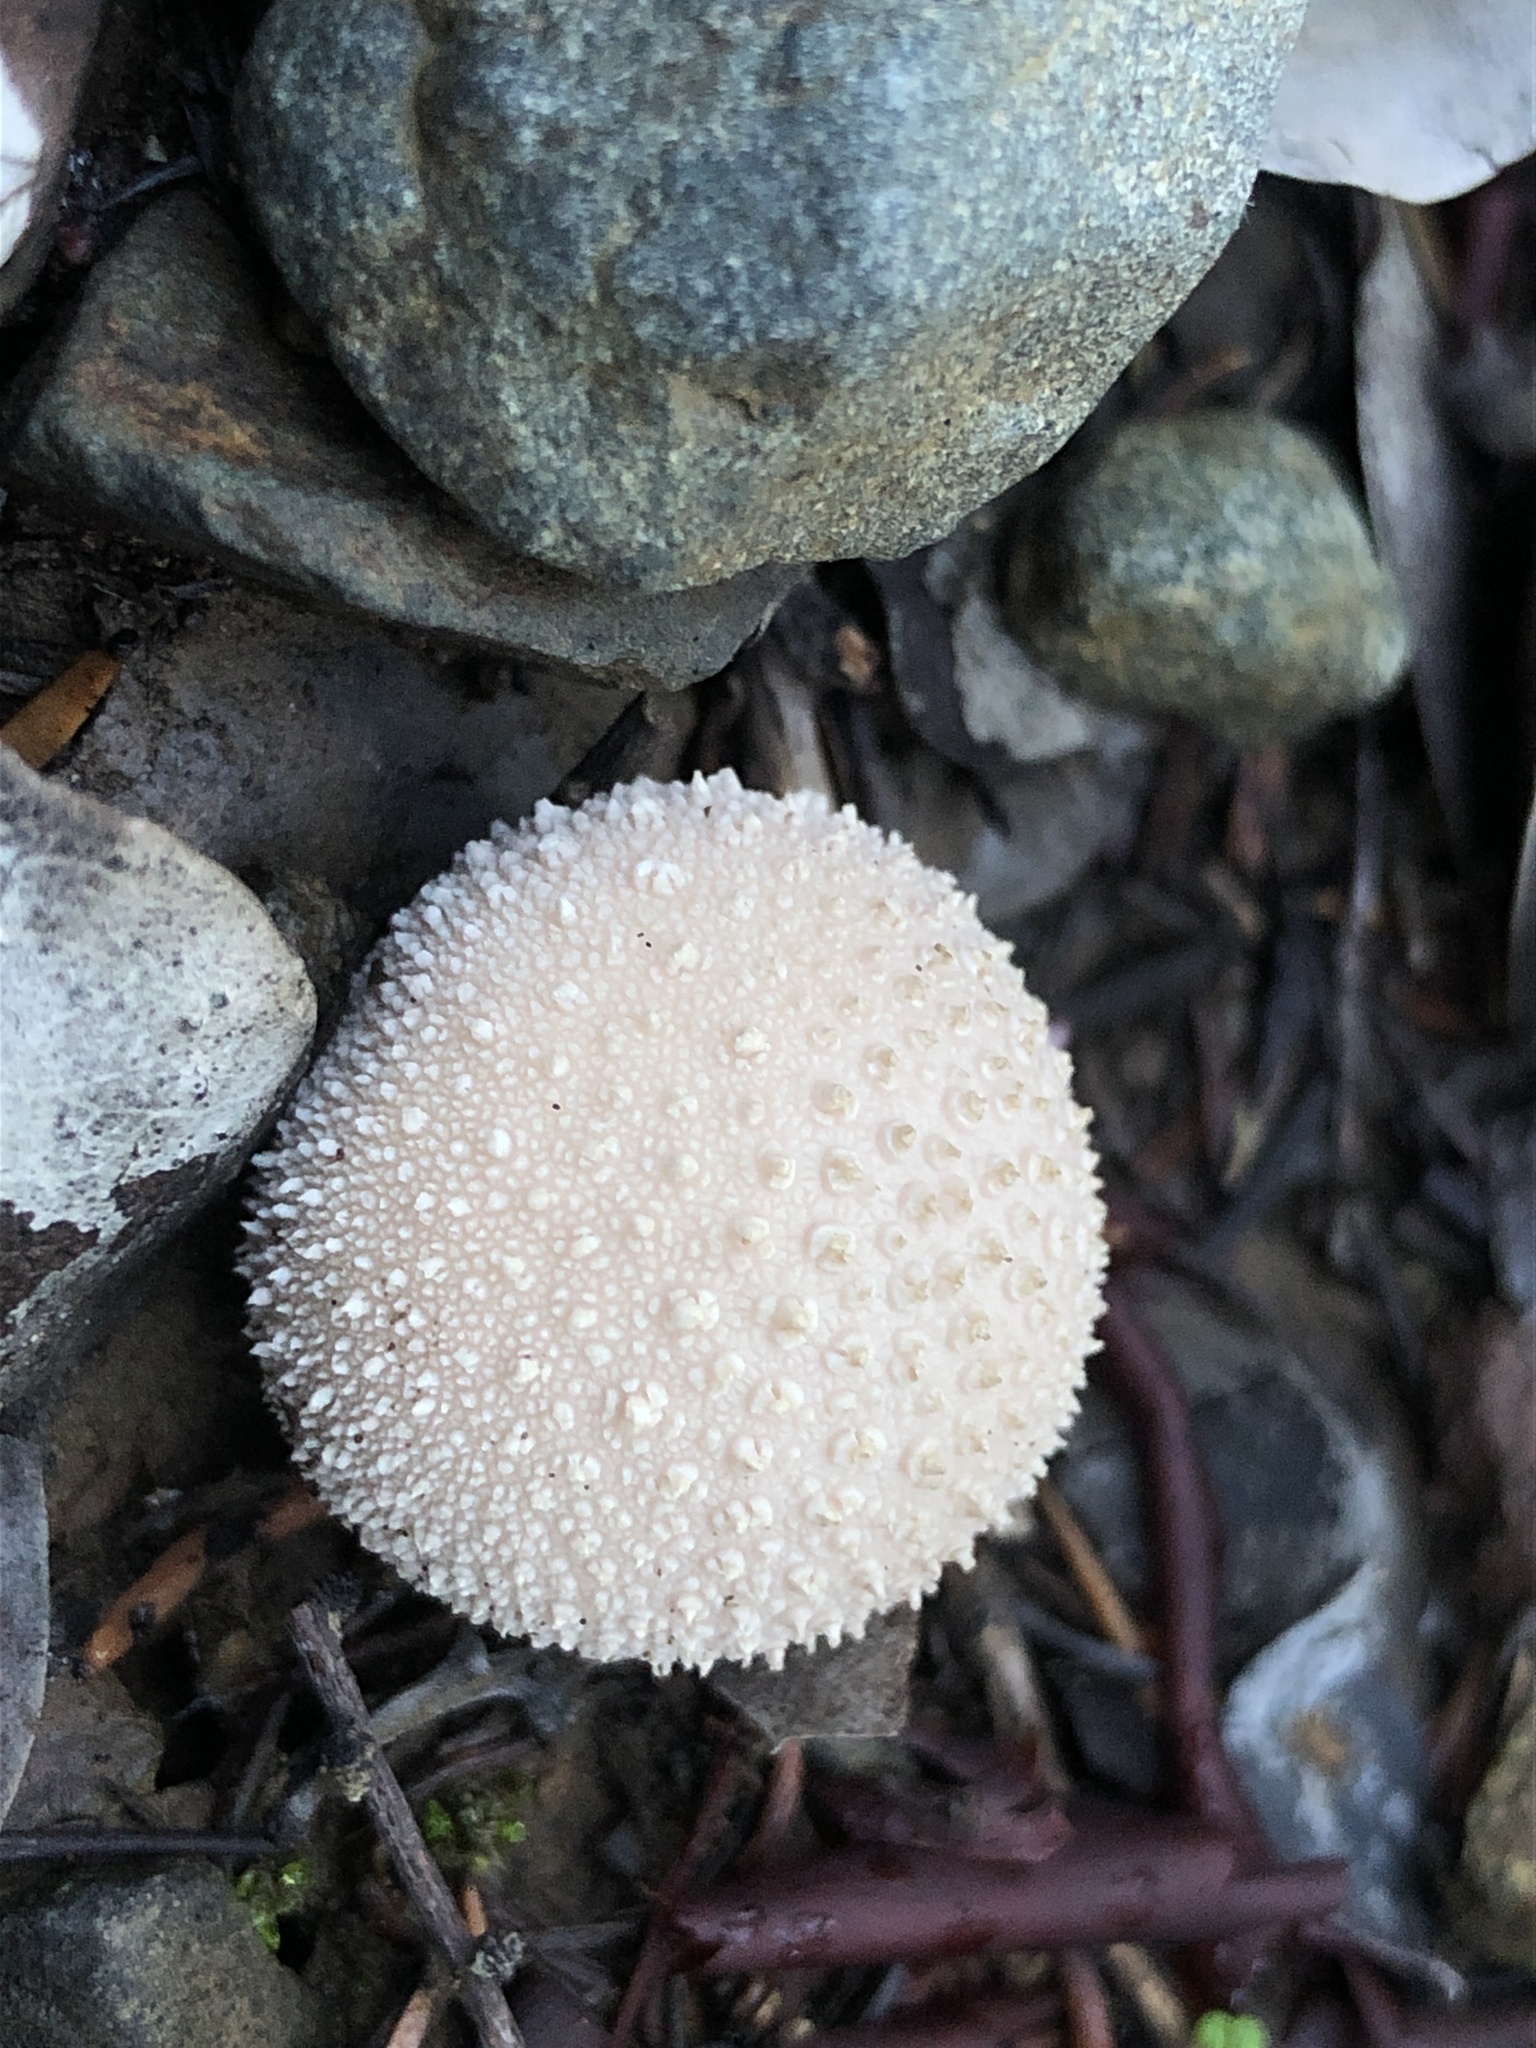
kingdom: Fungi
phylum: Basidiomycota
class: Agaricomycetes
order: Agaricales
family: Lycoperdaceae
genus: Lycoperdon
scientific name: Lycoperdon perlatum
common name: Common puffball
